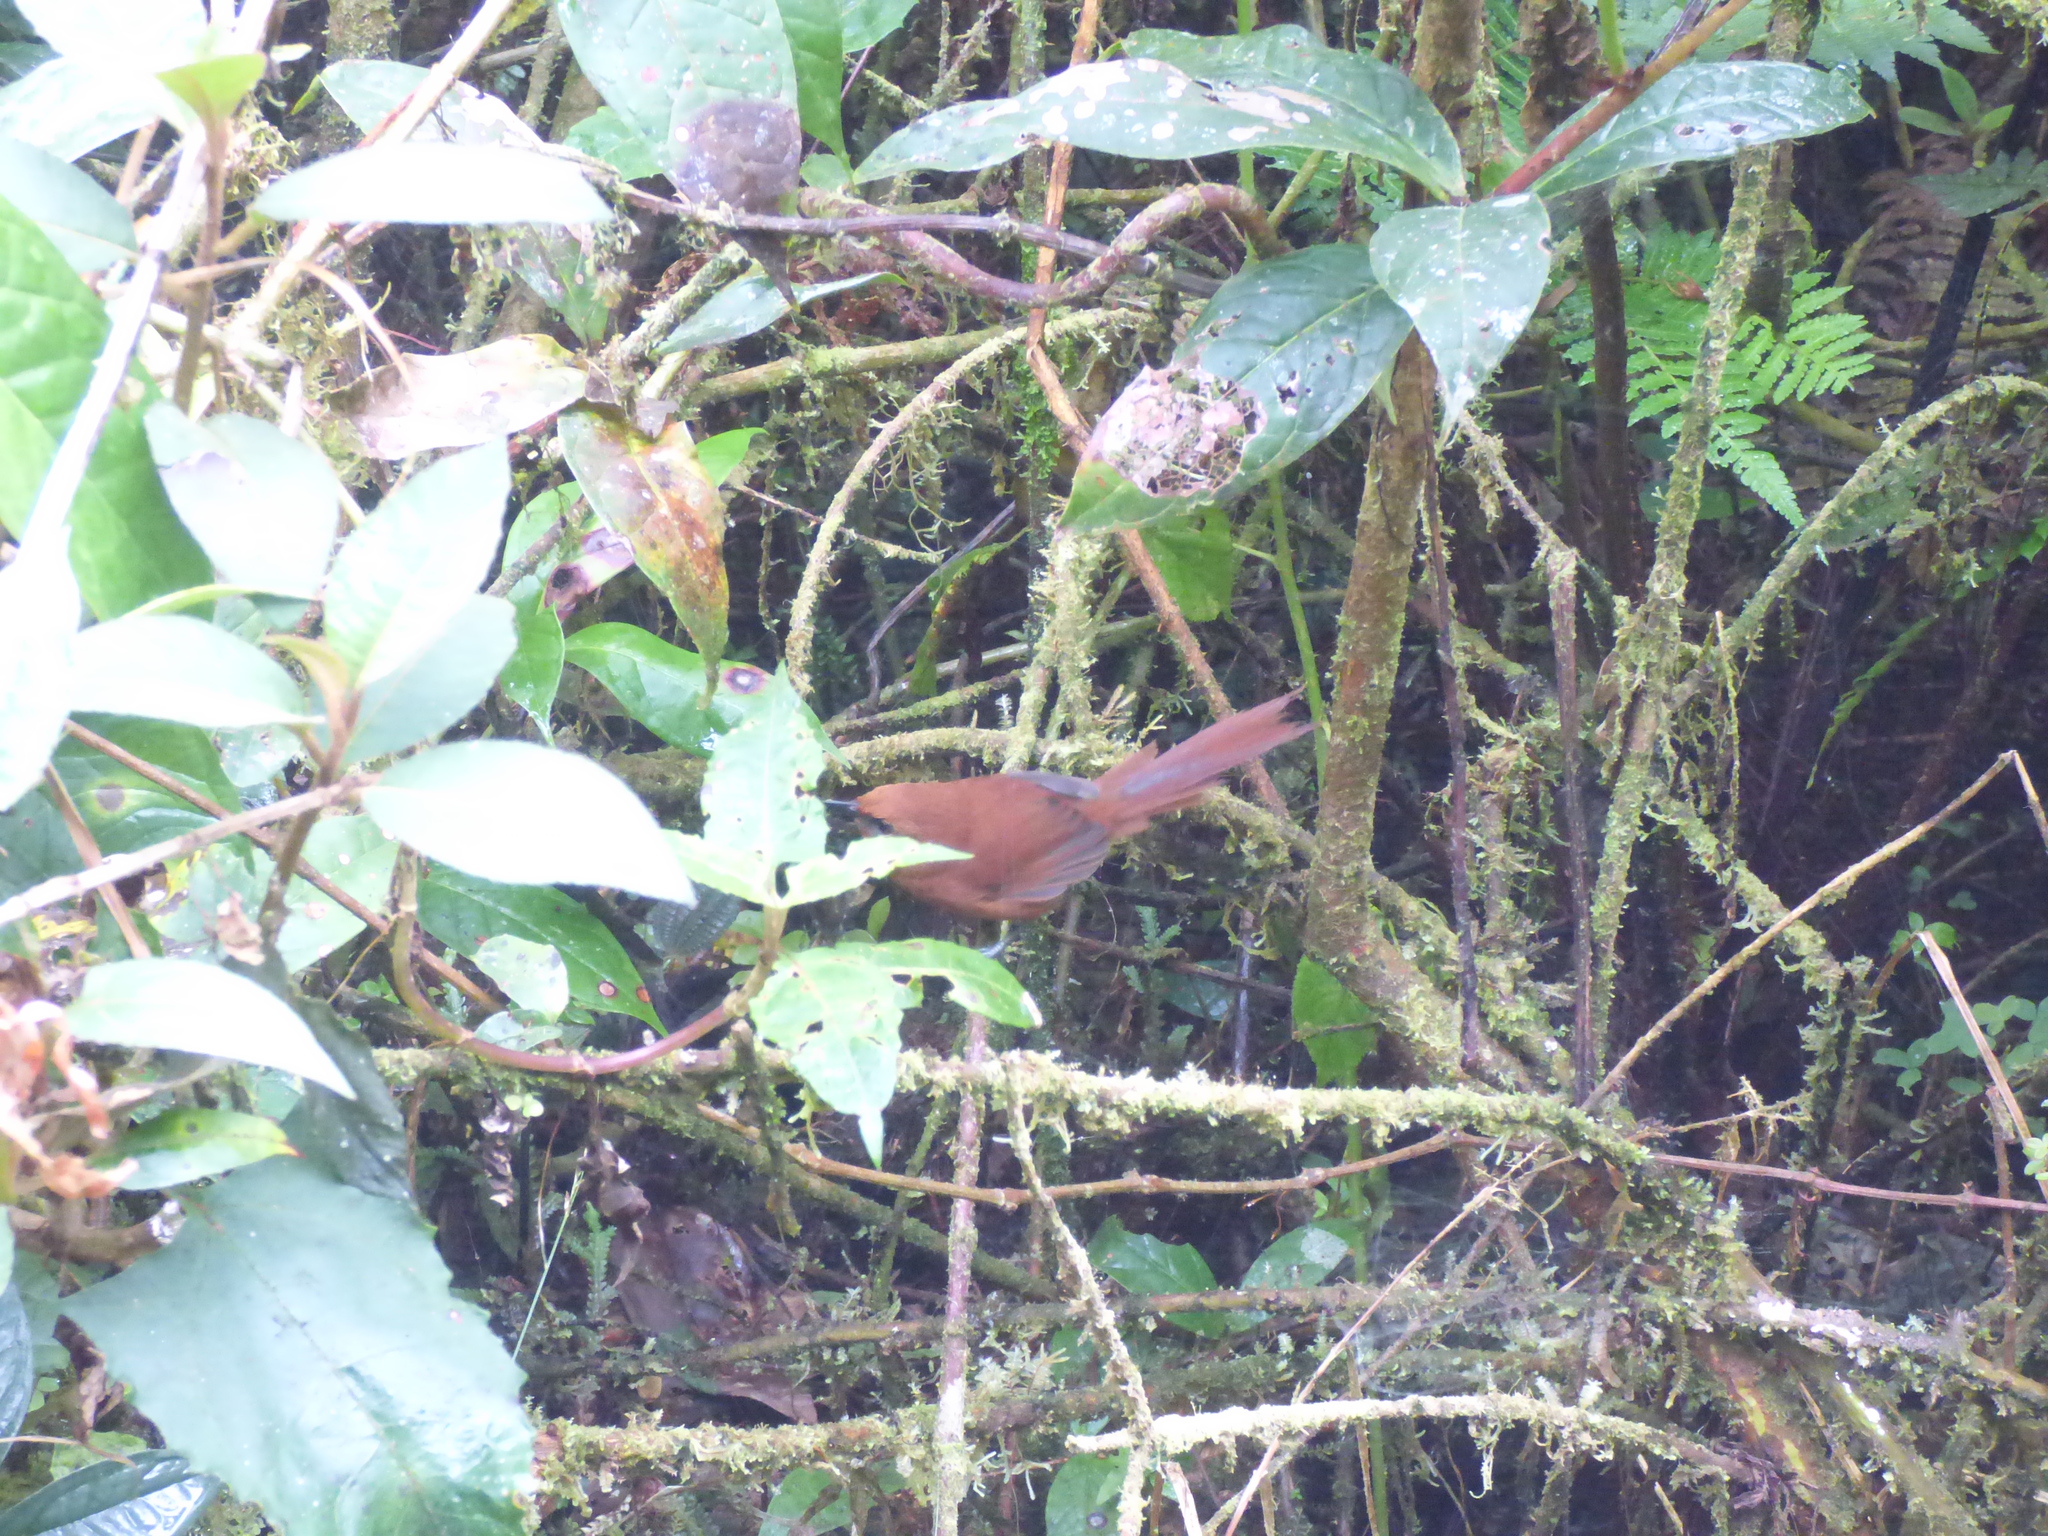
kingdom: Animalia
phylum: Chordata
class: Aves
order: Passeriformes
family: Furnariidae
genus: Synallaxis
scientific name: Synallaxis unirufa
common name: Rufous spinetail
